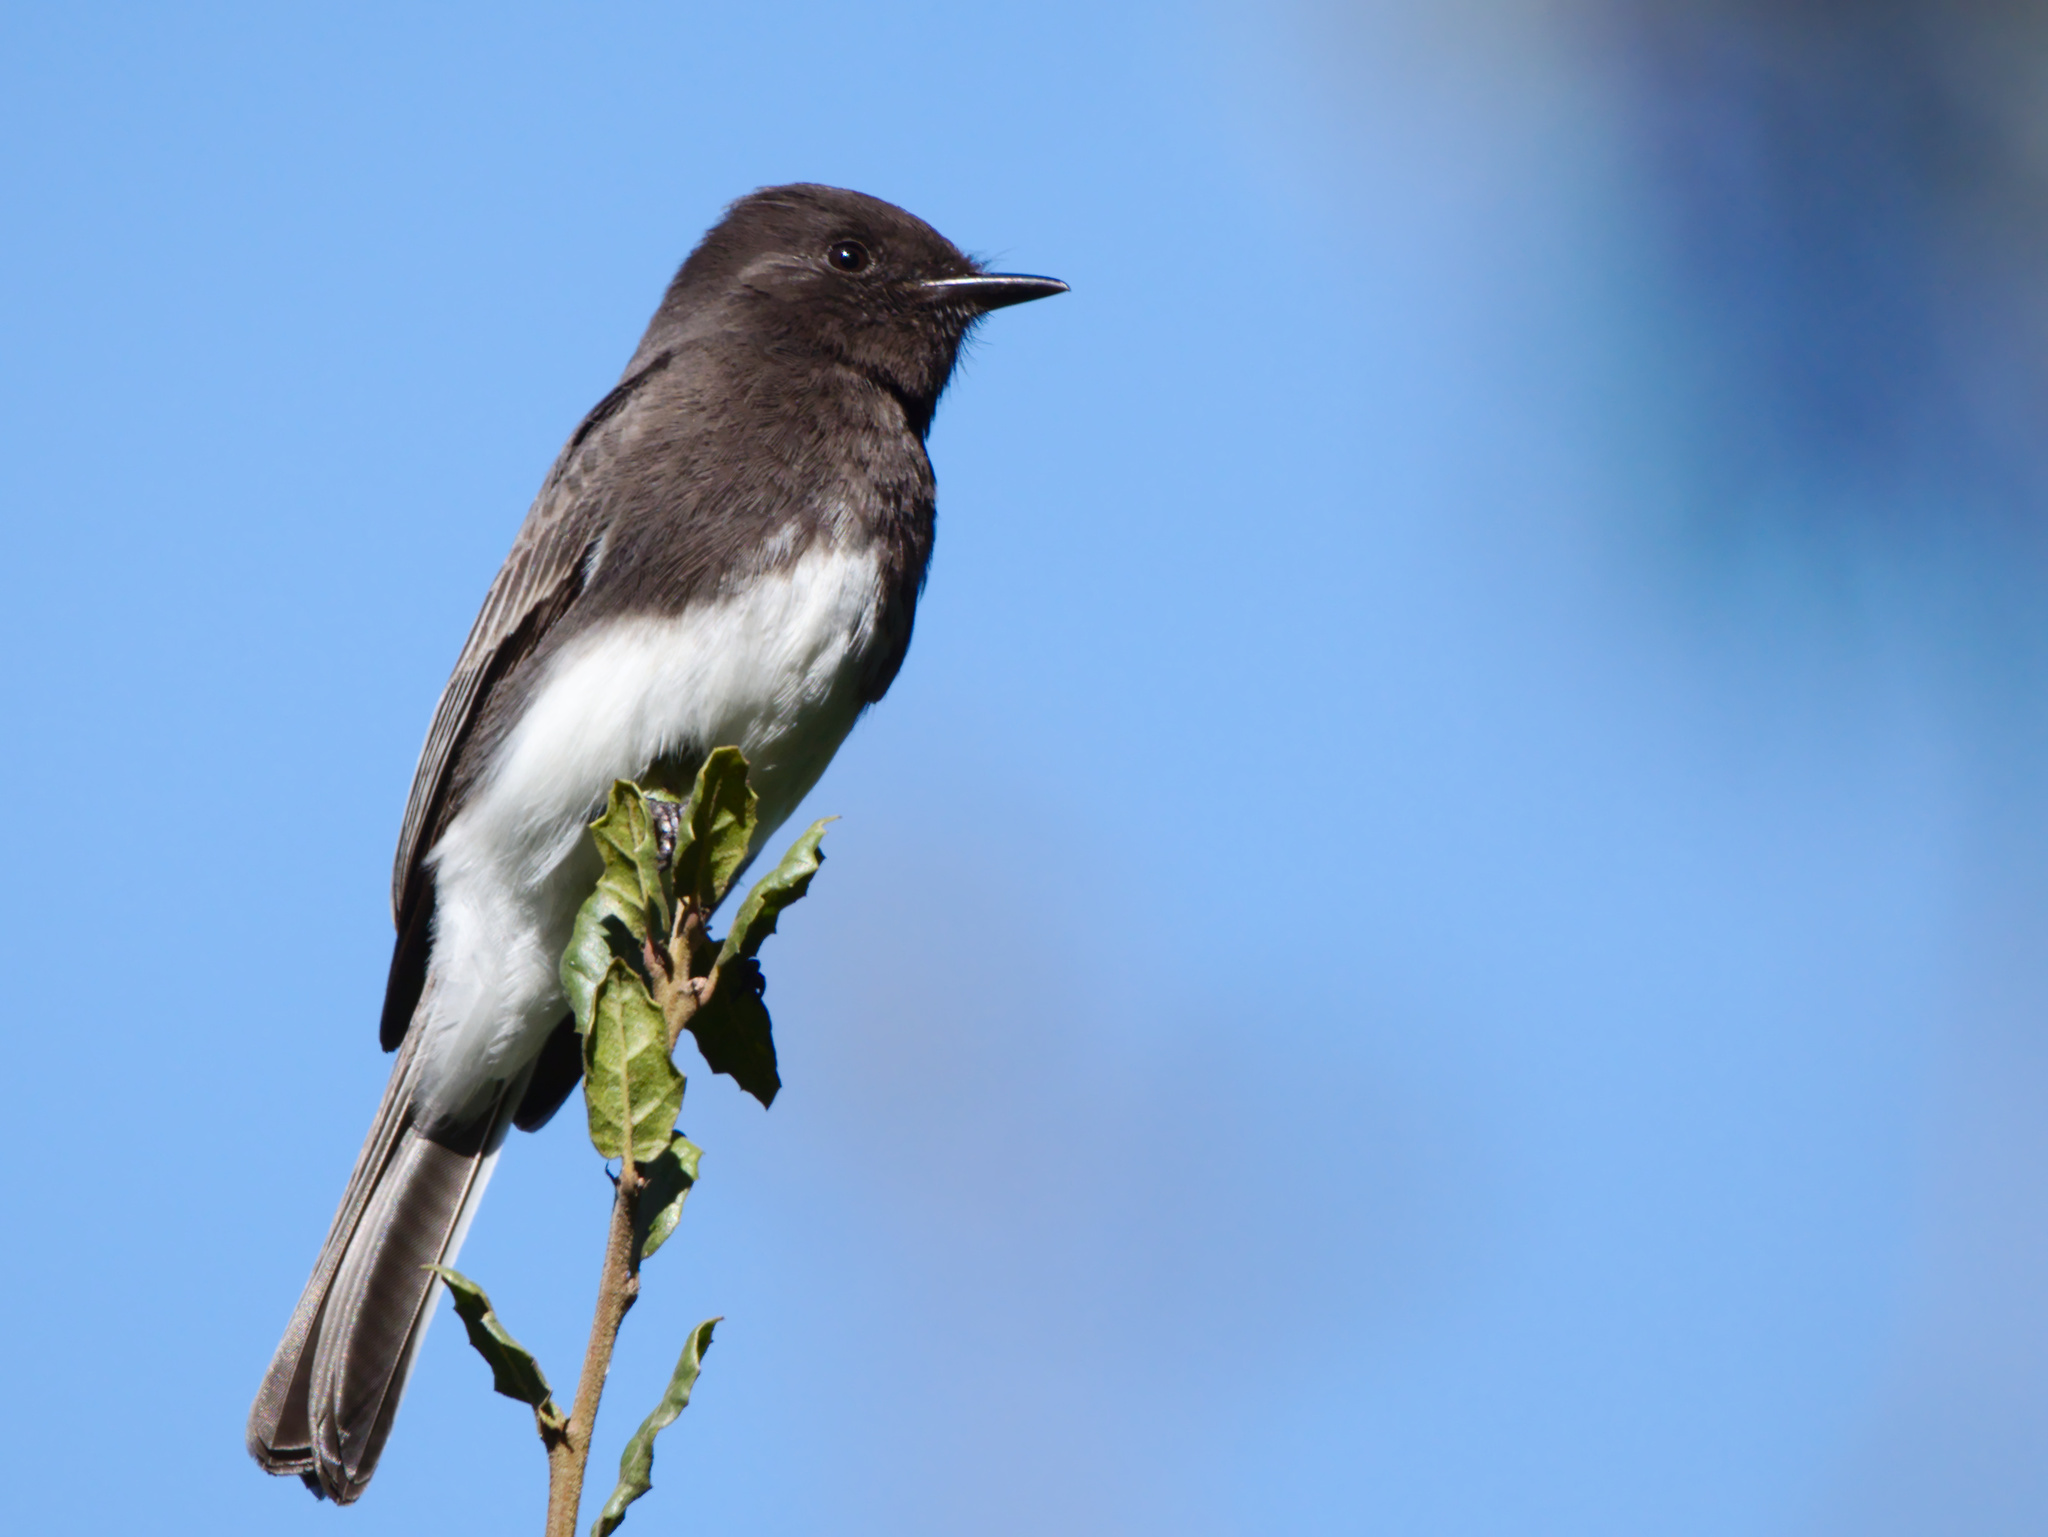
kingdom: Animalia
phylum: Chordata
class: Aves
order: Passeriformes
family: Tyrannidae
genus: Sayornis
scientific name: Sayornis nigricans
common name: Black phoebe
